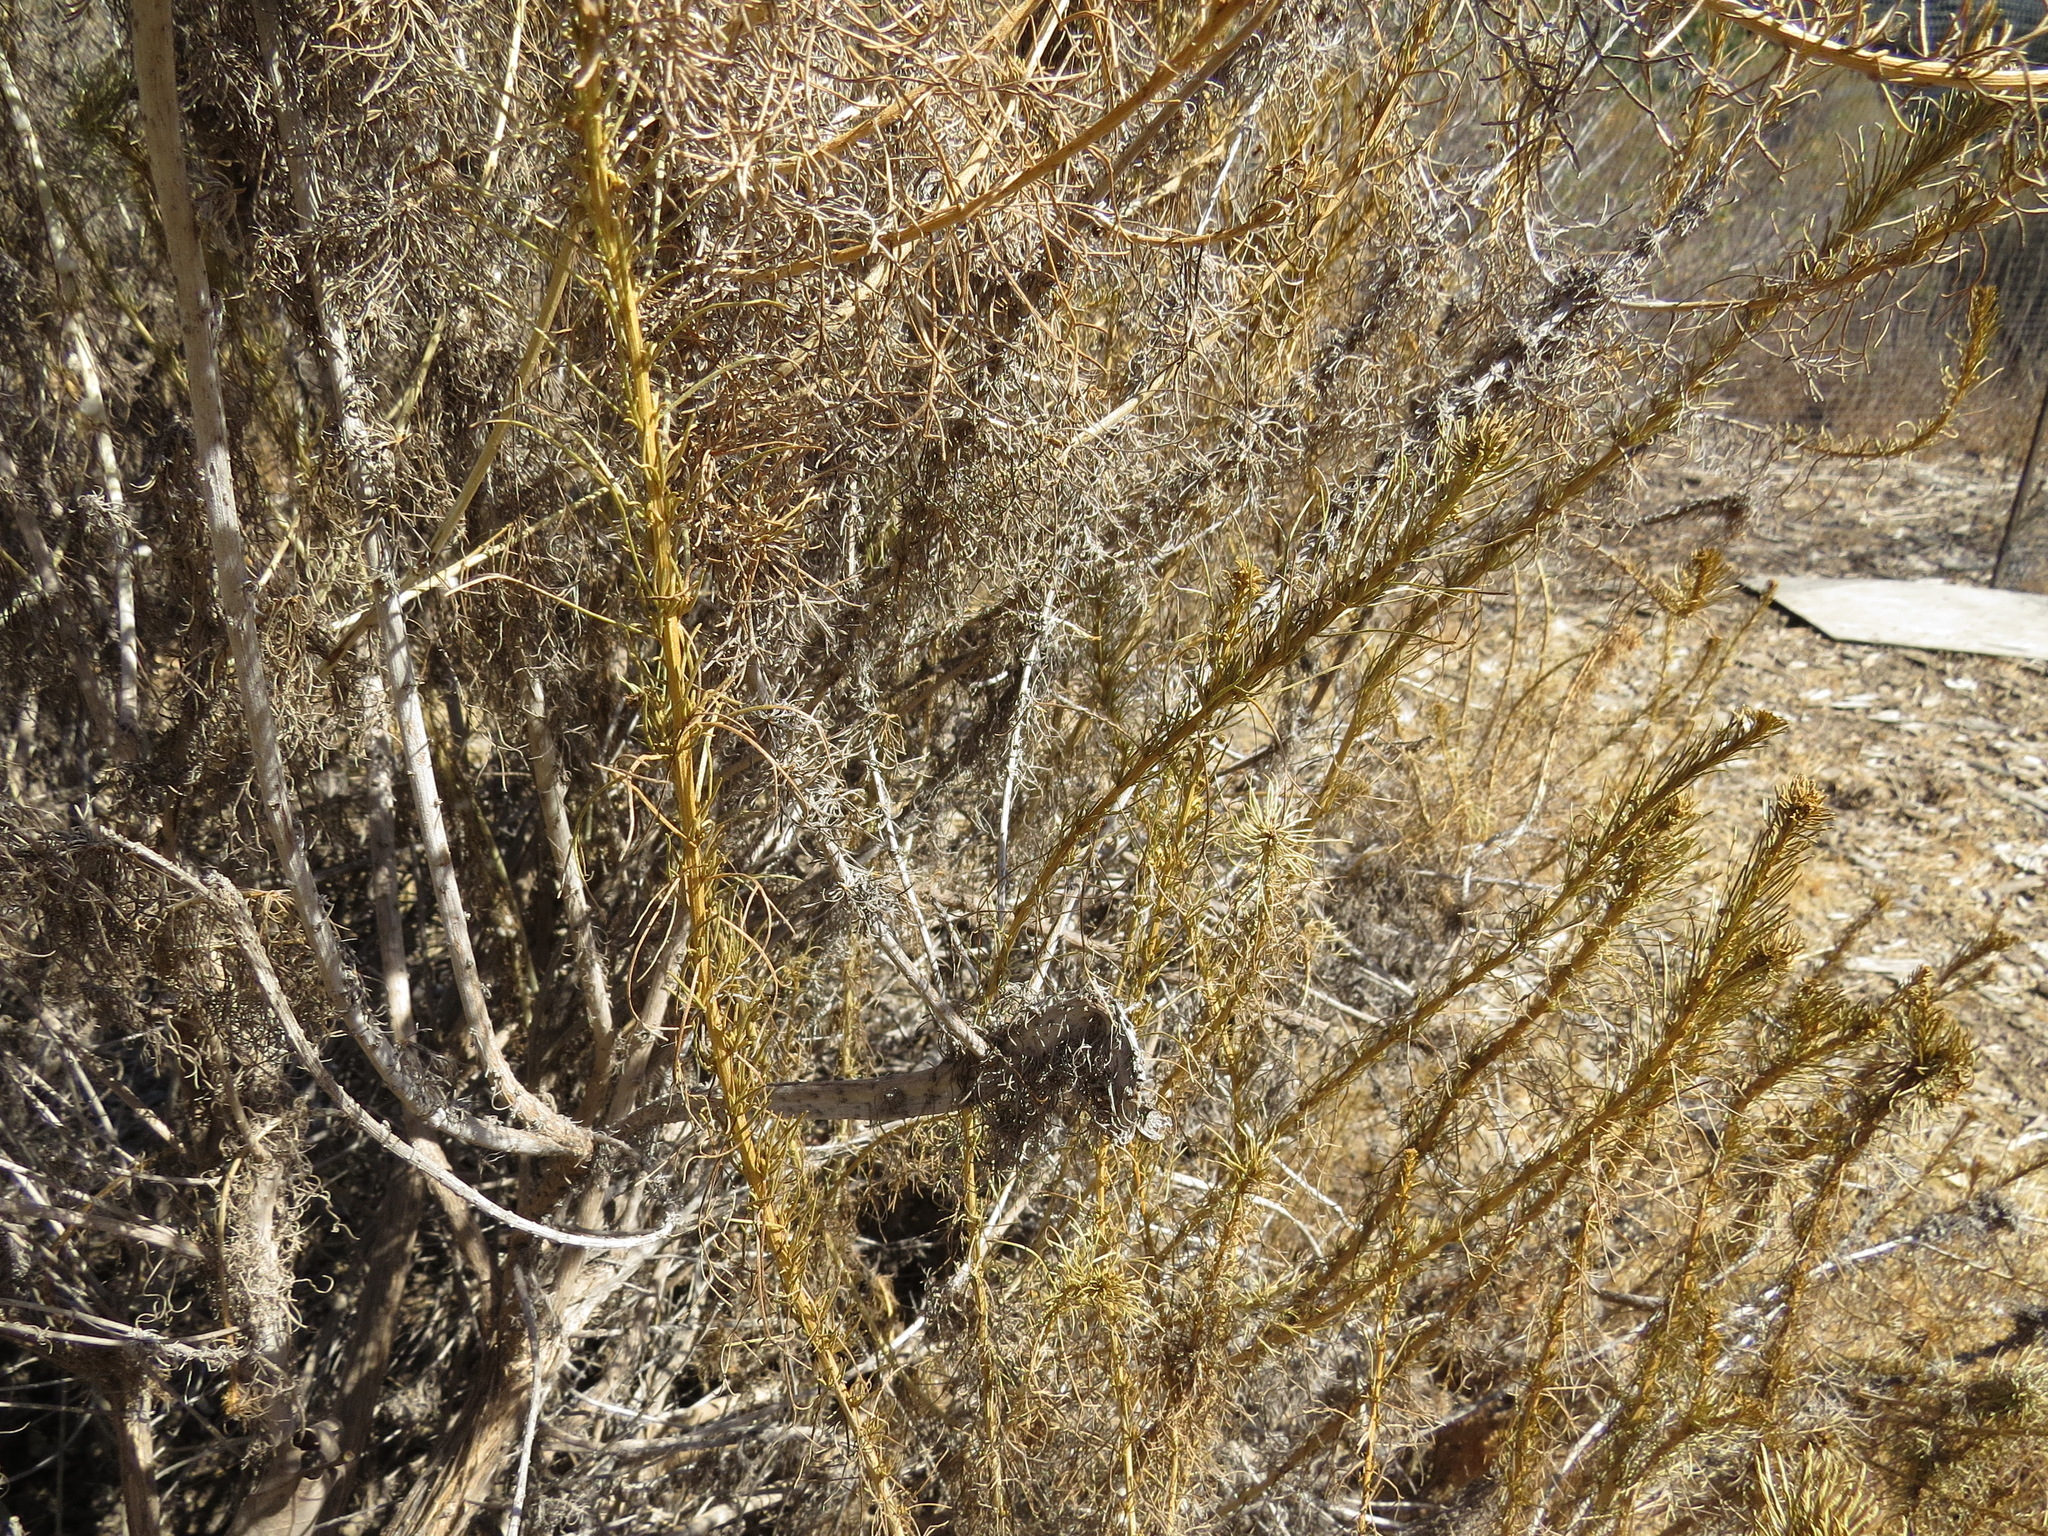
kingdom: Plantae
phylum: Tracheophyta
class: Magnoliopsida
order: Asterales
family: Asteraceae
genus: Artemisia
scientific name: Artemisia californica
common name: California sagebrush
